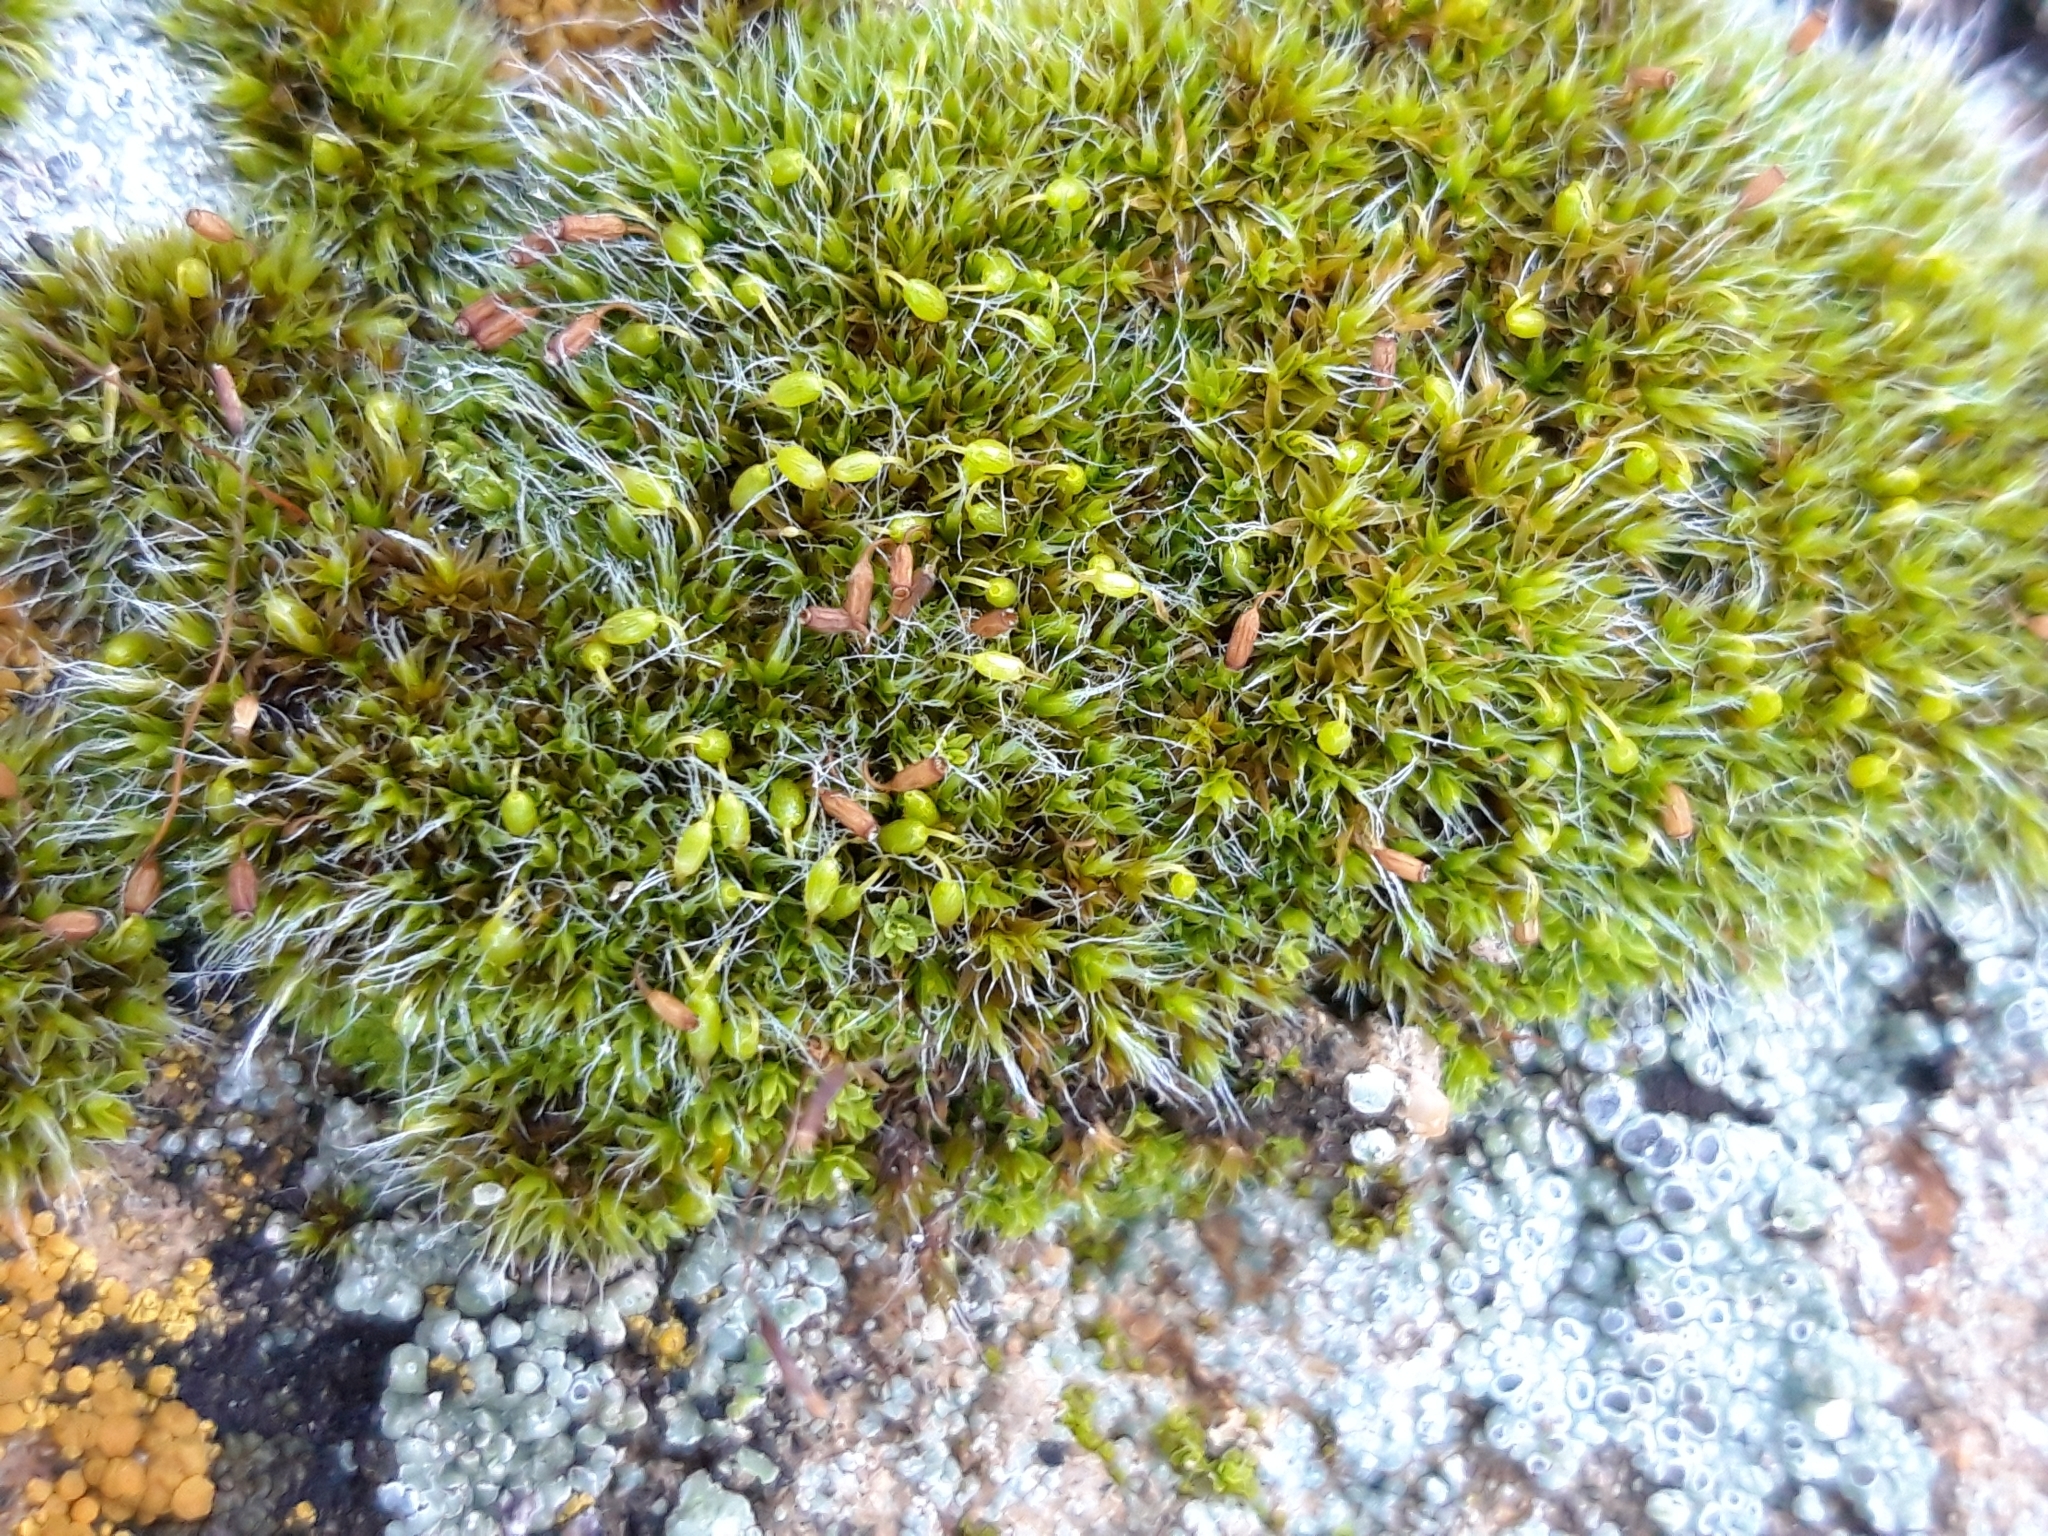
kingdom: Plantae
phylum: Bryophyta
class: Bryopsida
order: Grimmiales
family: Grimmiaceae
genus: Grimmia
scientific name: Grimmia pulvinata
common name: Grey-cushioned grimmia
